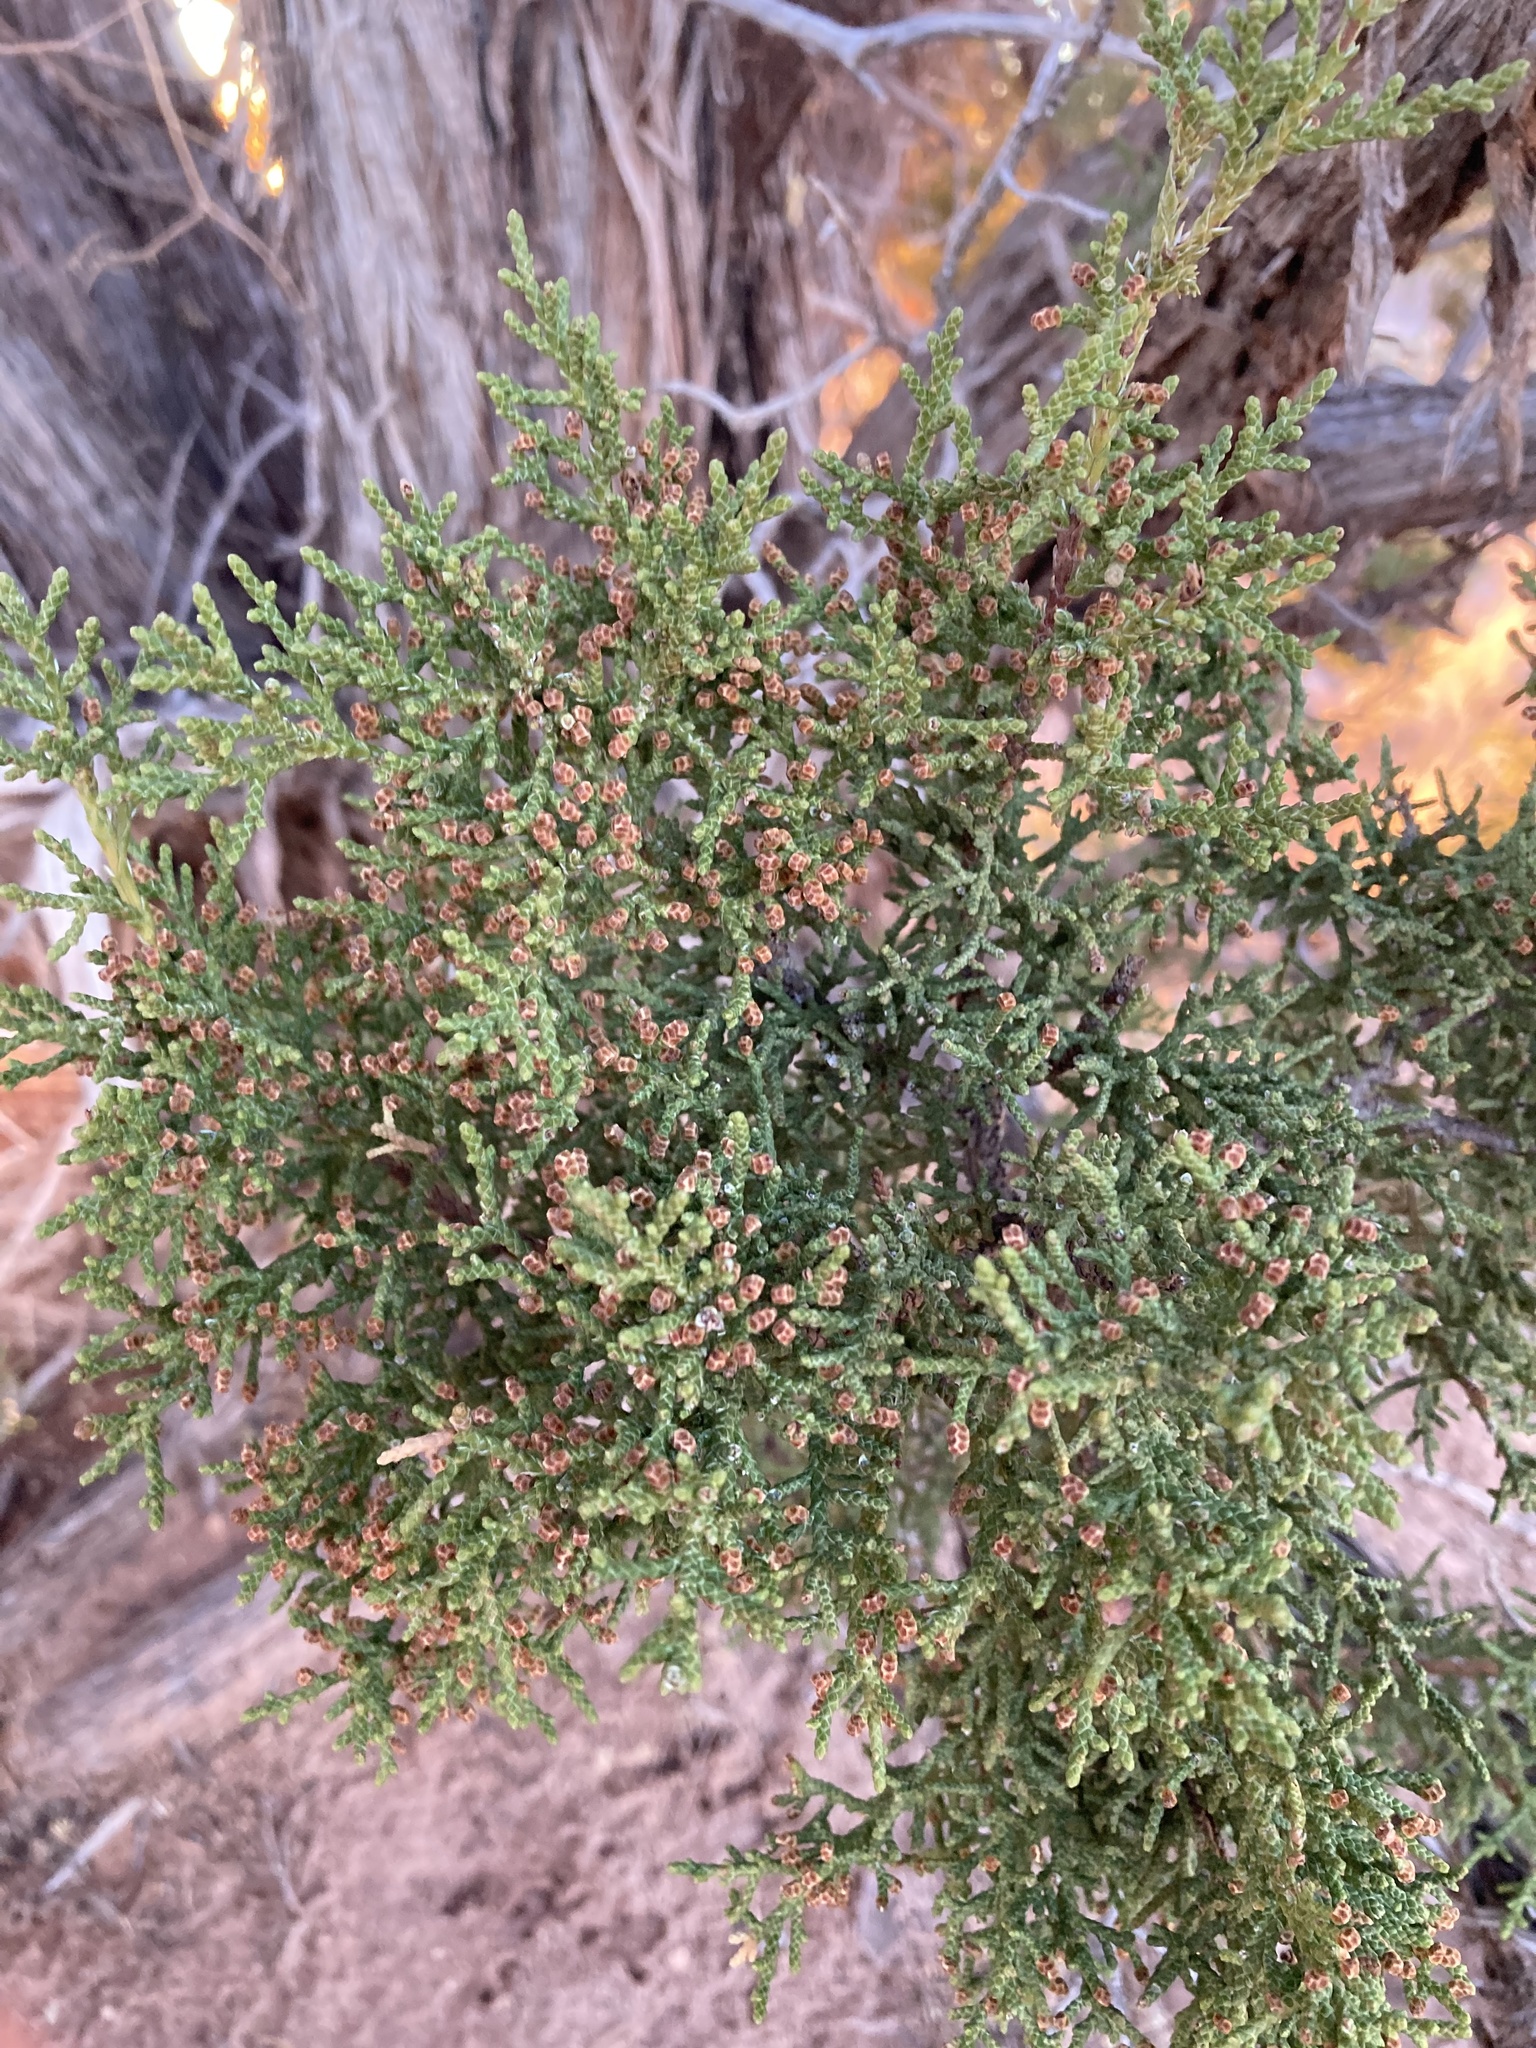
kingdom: Plantae
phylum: Tracheophyta
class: Pinopsida
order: Pinales
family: Cupressaceae
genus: Juniperus
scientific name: Juniperus monosperma
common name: One-seed juniper
